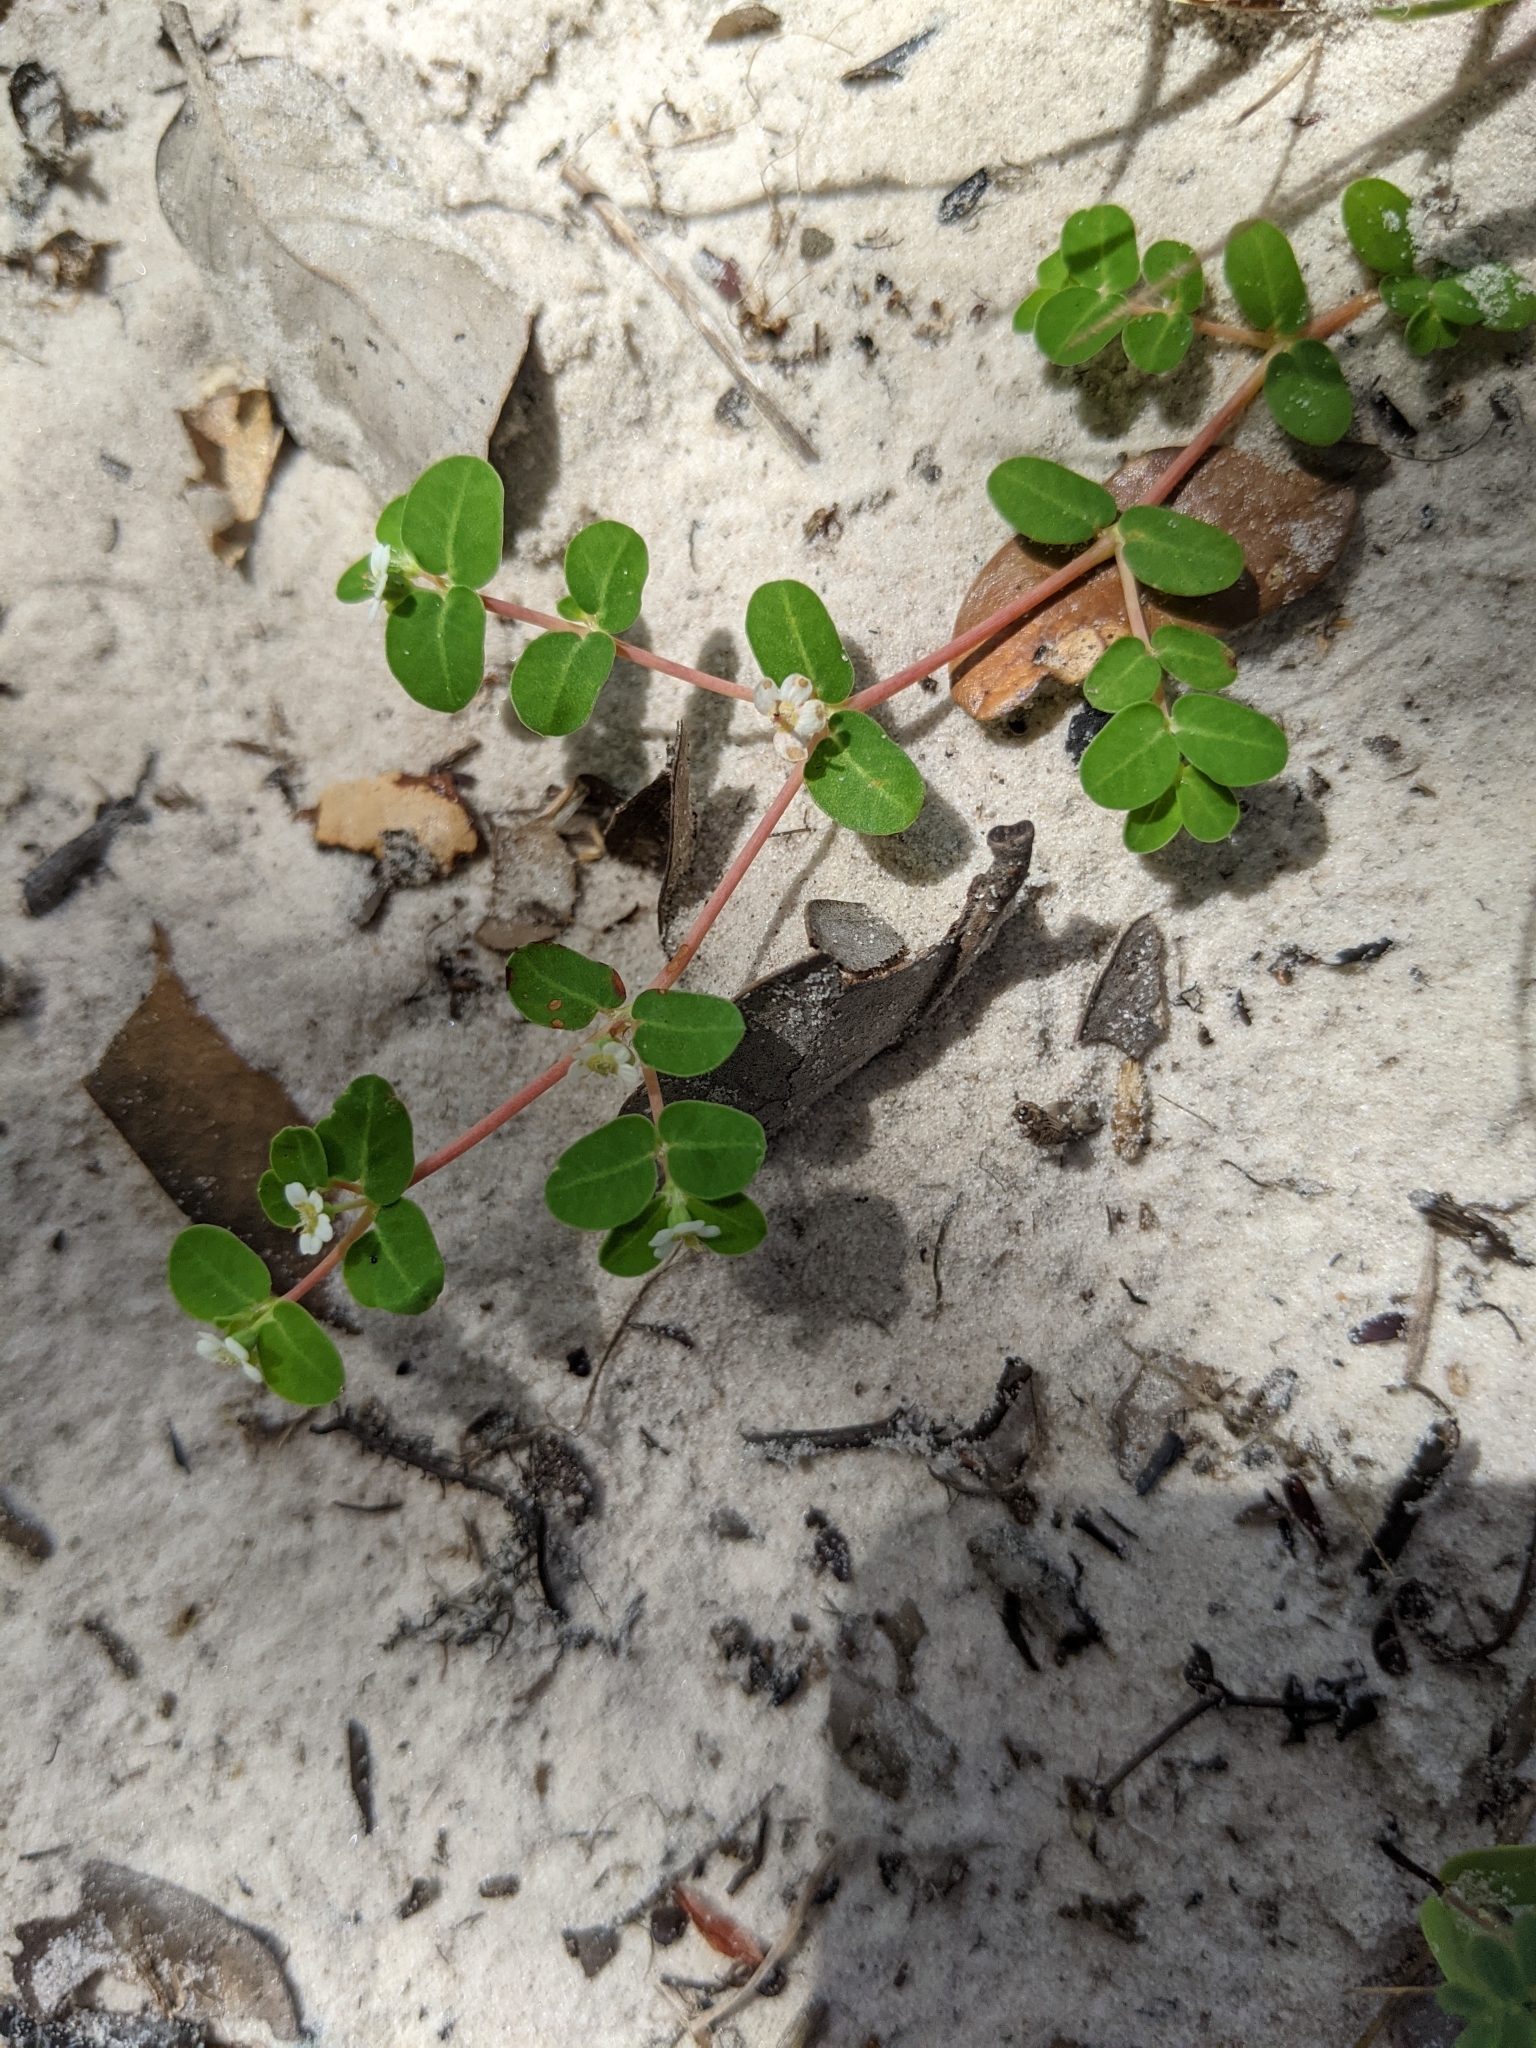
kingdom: Plantae
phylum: Tracheophyta
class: Magnoliopsida
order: Malpighiales
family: Euphorbiaceae
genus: Euphorbia
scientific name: Euphorbia cordifolia
